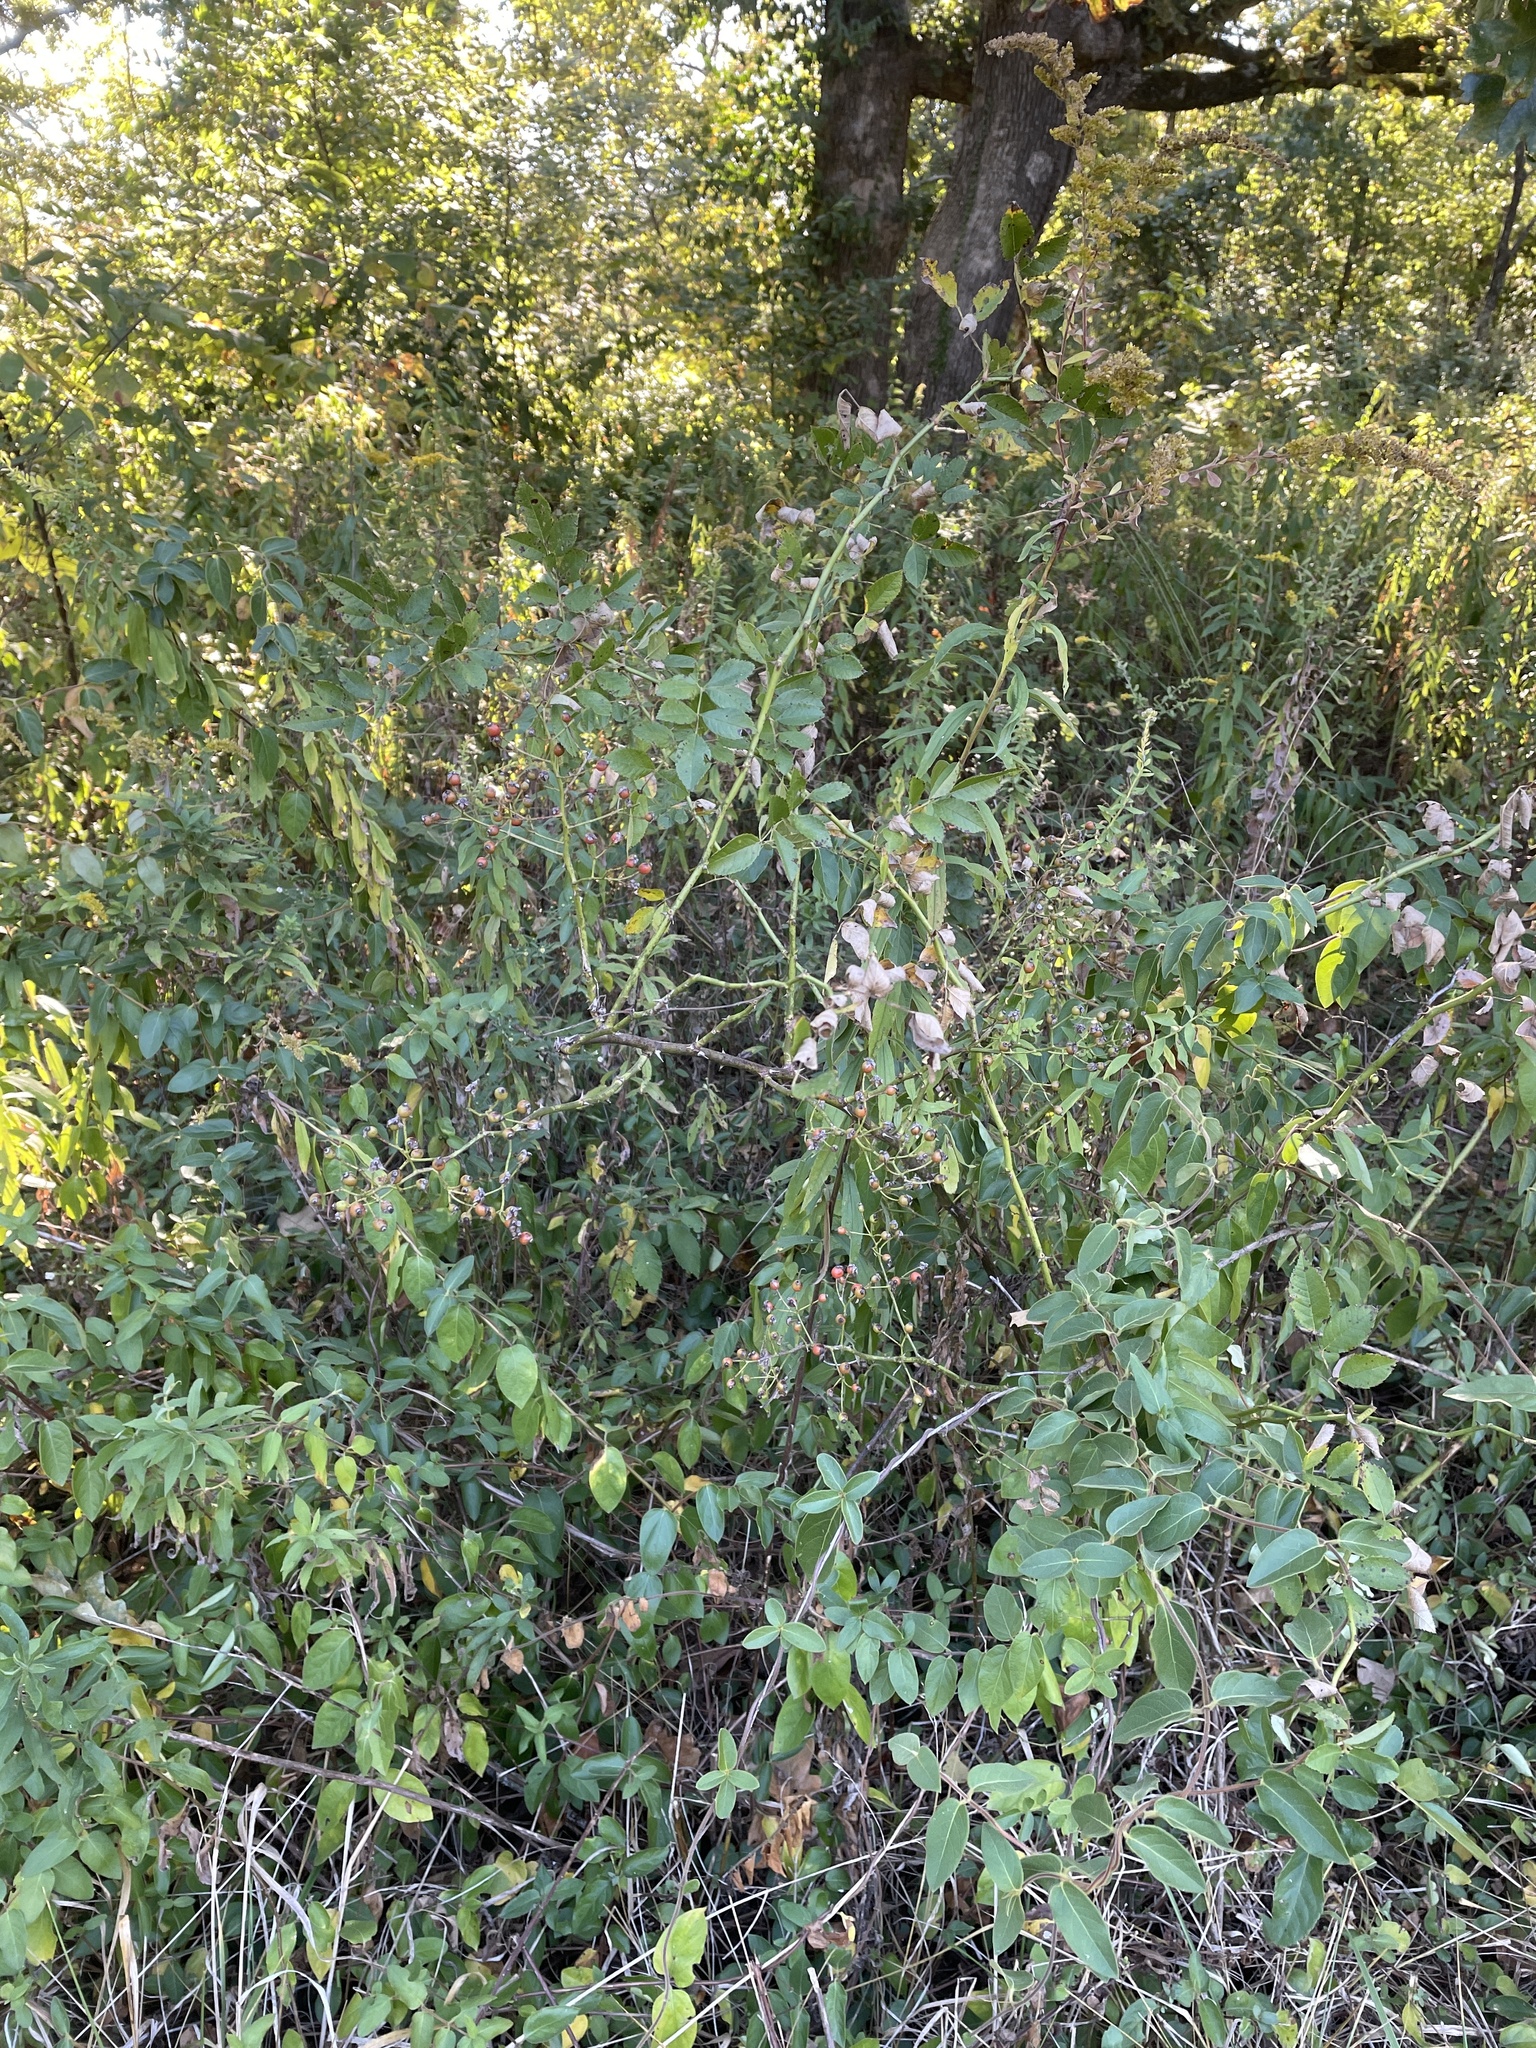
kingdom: Plantae
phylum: Tracheophyta
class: Magnoliopsida
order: Rosales
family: Rosaceae
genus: Rosa
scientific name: Rosa multiflora
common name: Multiflora rose
